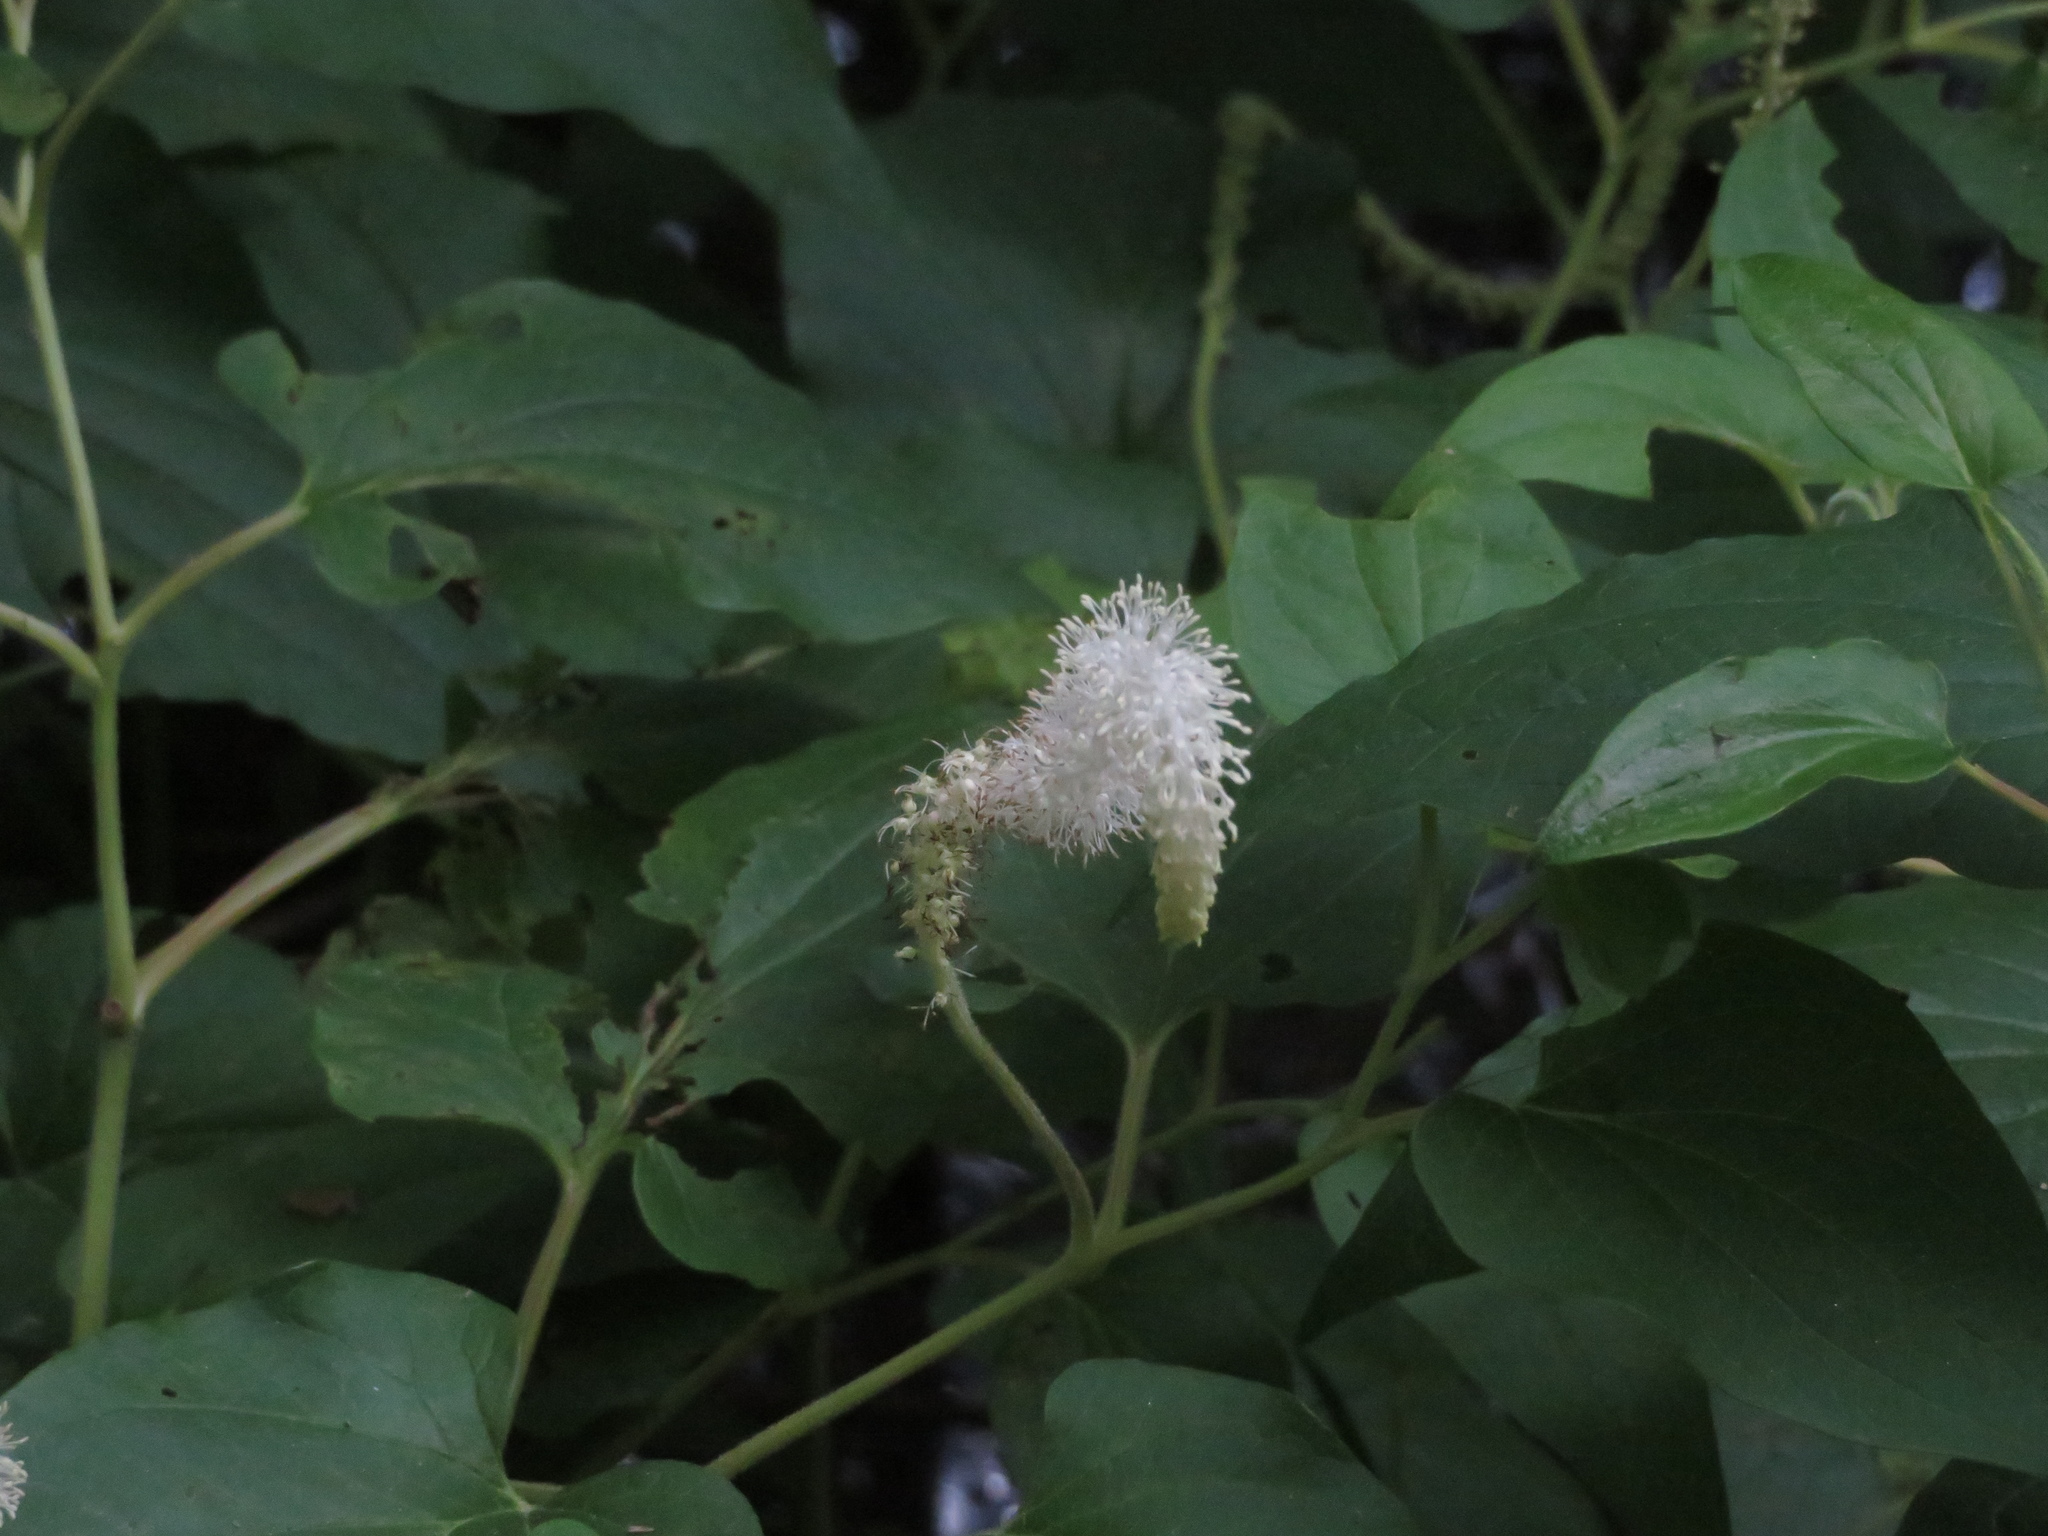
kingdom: Plantae
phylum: Tracheophyta
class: Magnoliopsida
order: Piperales
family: Saururaceae
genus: Saururus
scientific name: Saururus cernuus
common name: Lizard's-tail
